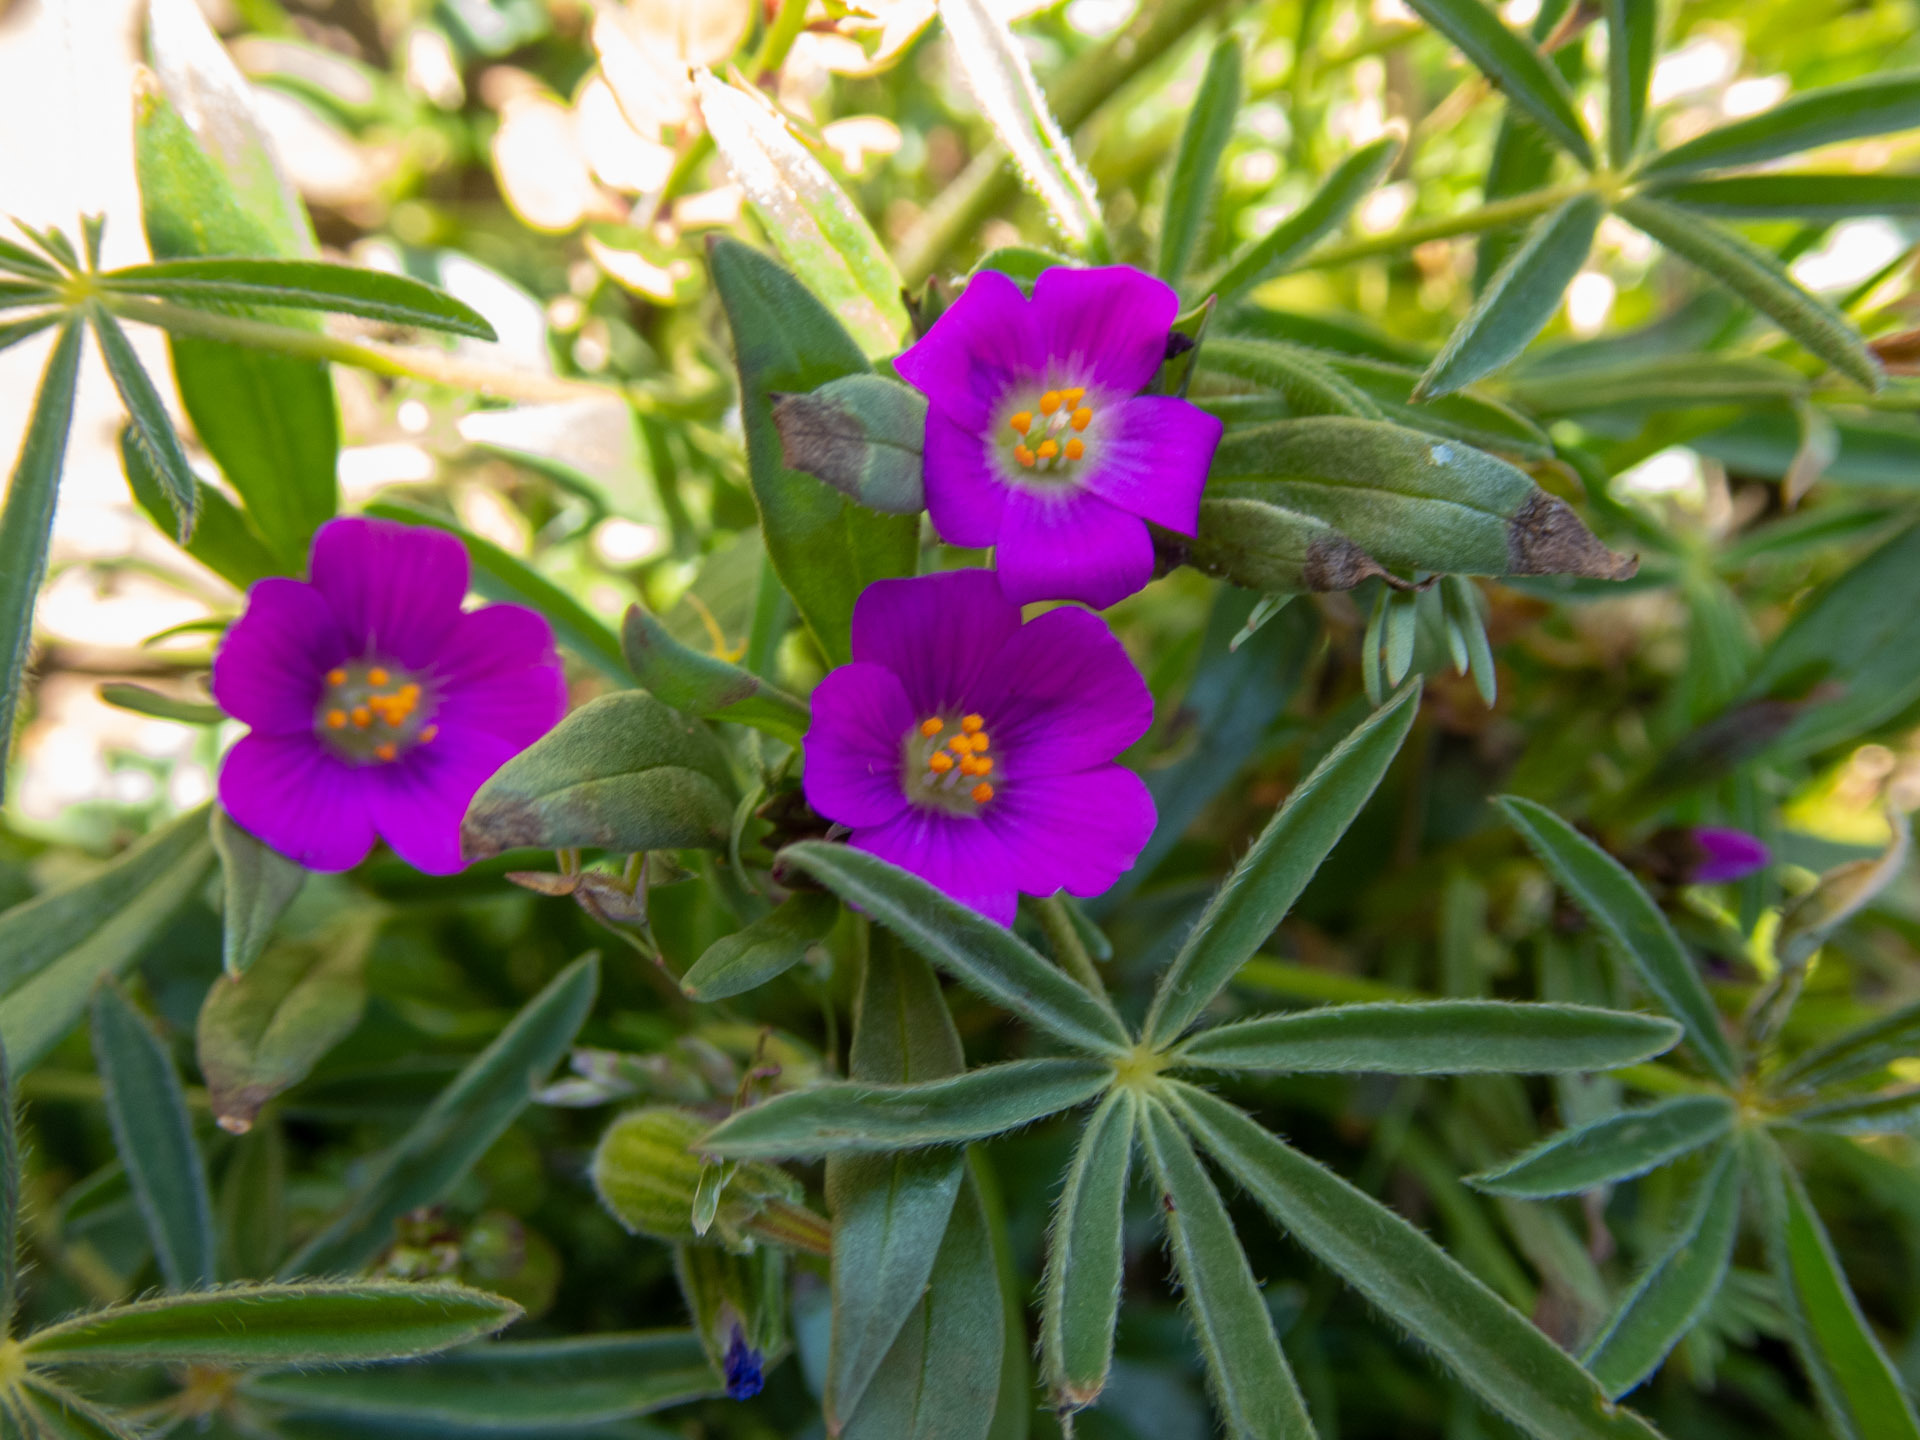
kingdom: Plantae
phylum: Tracheophyta
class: Magnoliopsida
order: Caryophyllales
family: Montiaceae
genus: Calandrinia
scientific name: Calandrinia menziesii
